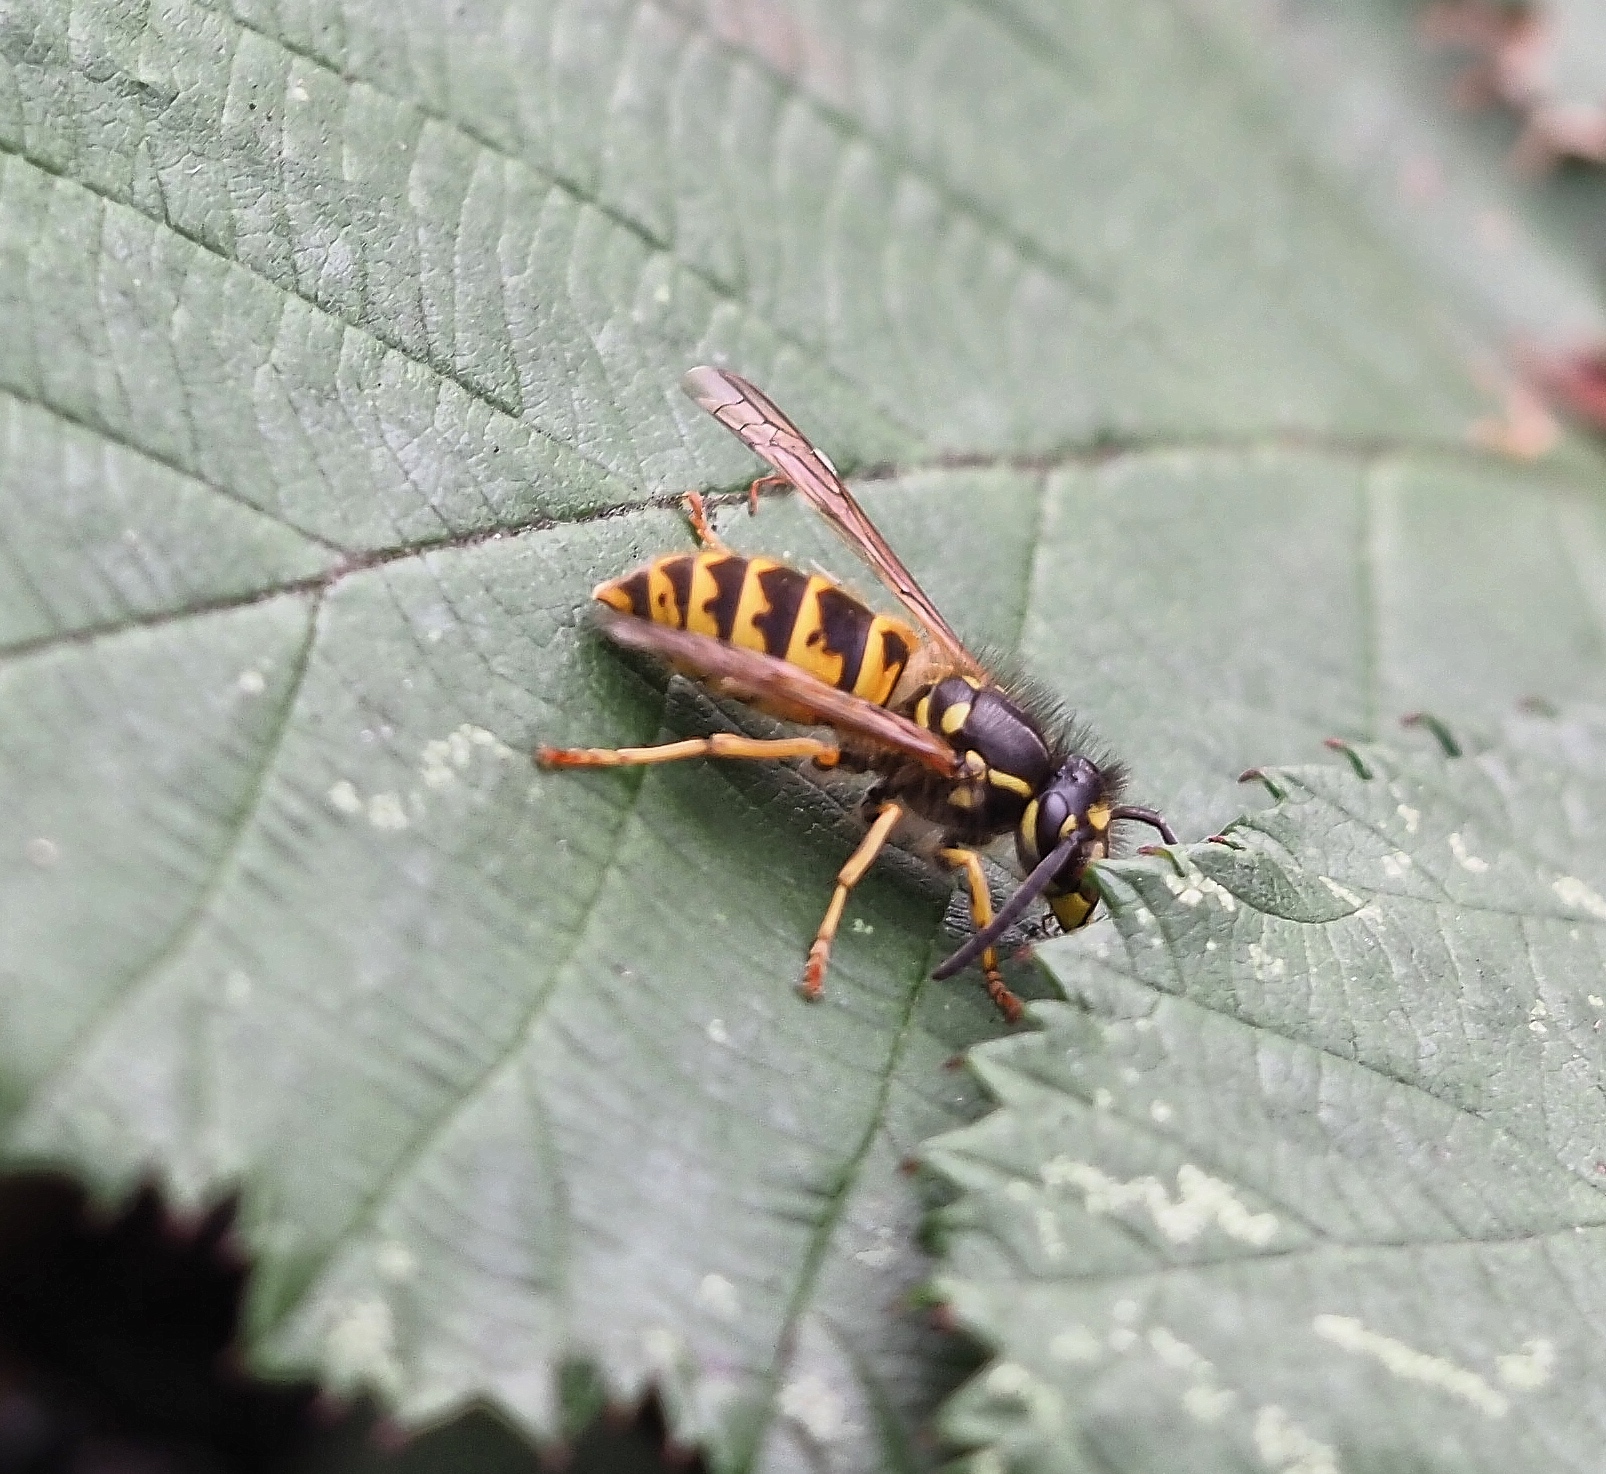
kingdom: Animalia
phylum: Arthropoda
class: Insecta
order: Hymenoptera
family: Vespidae
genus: Vespula
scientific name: Vespula vulgaris
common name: Common wasp
